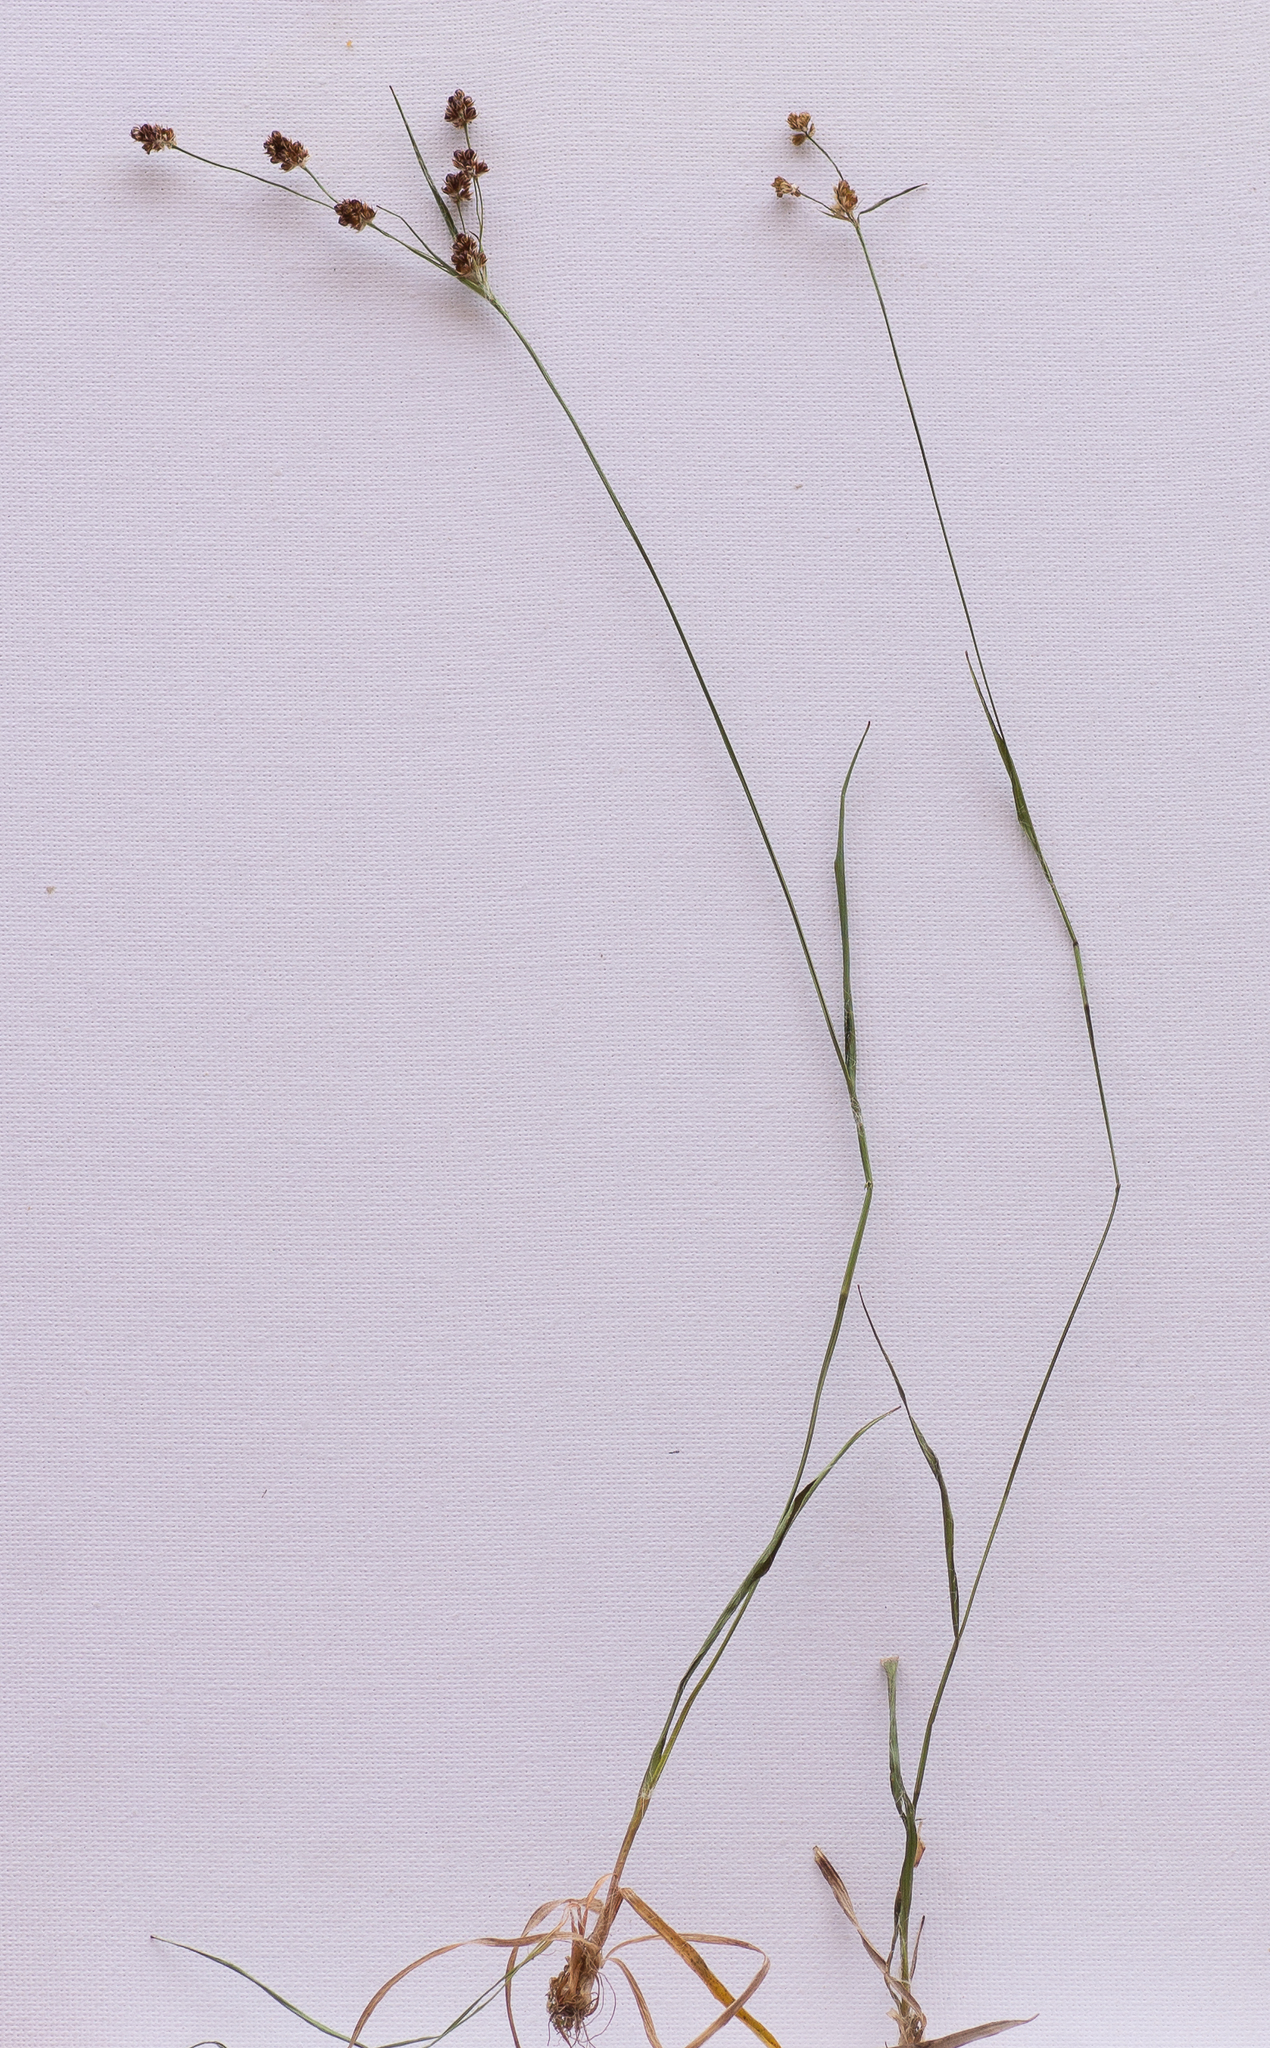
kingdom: Plantae
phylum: Tracheophyta
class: Liliopsida
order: Poales
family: Juncaceae
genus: Luzula
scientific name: Luzula multiflora
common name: Heath wood-rush
